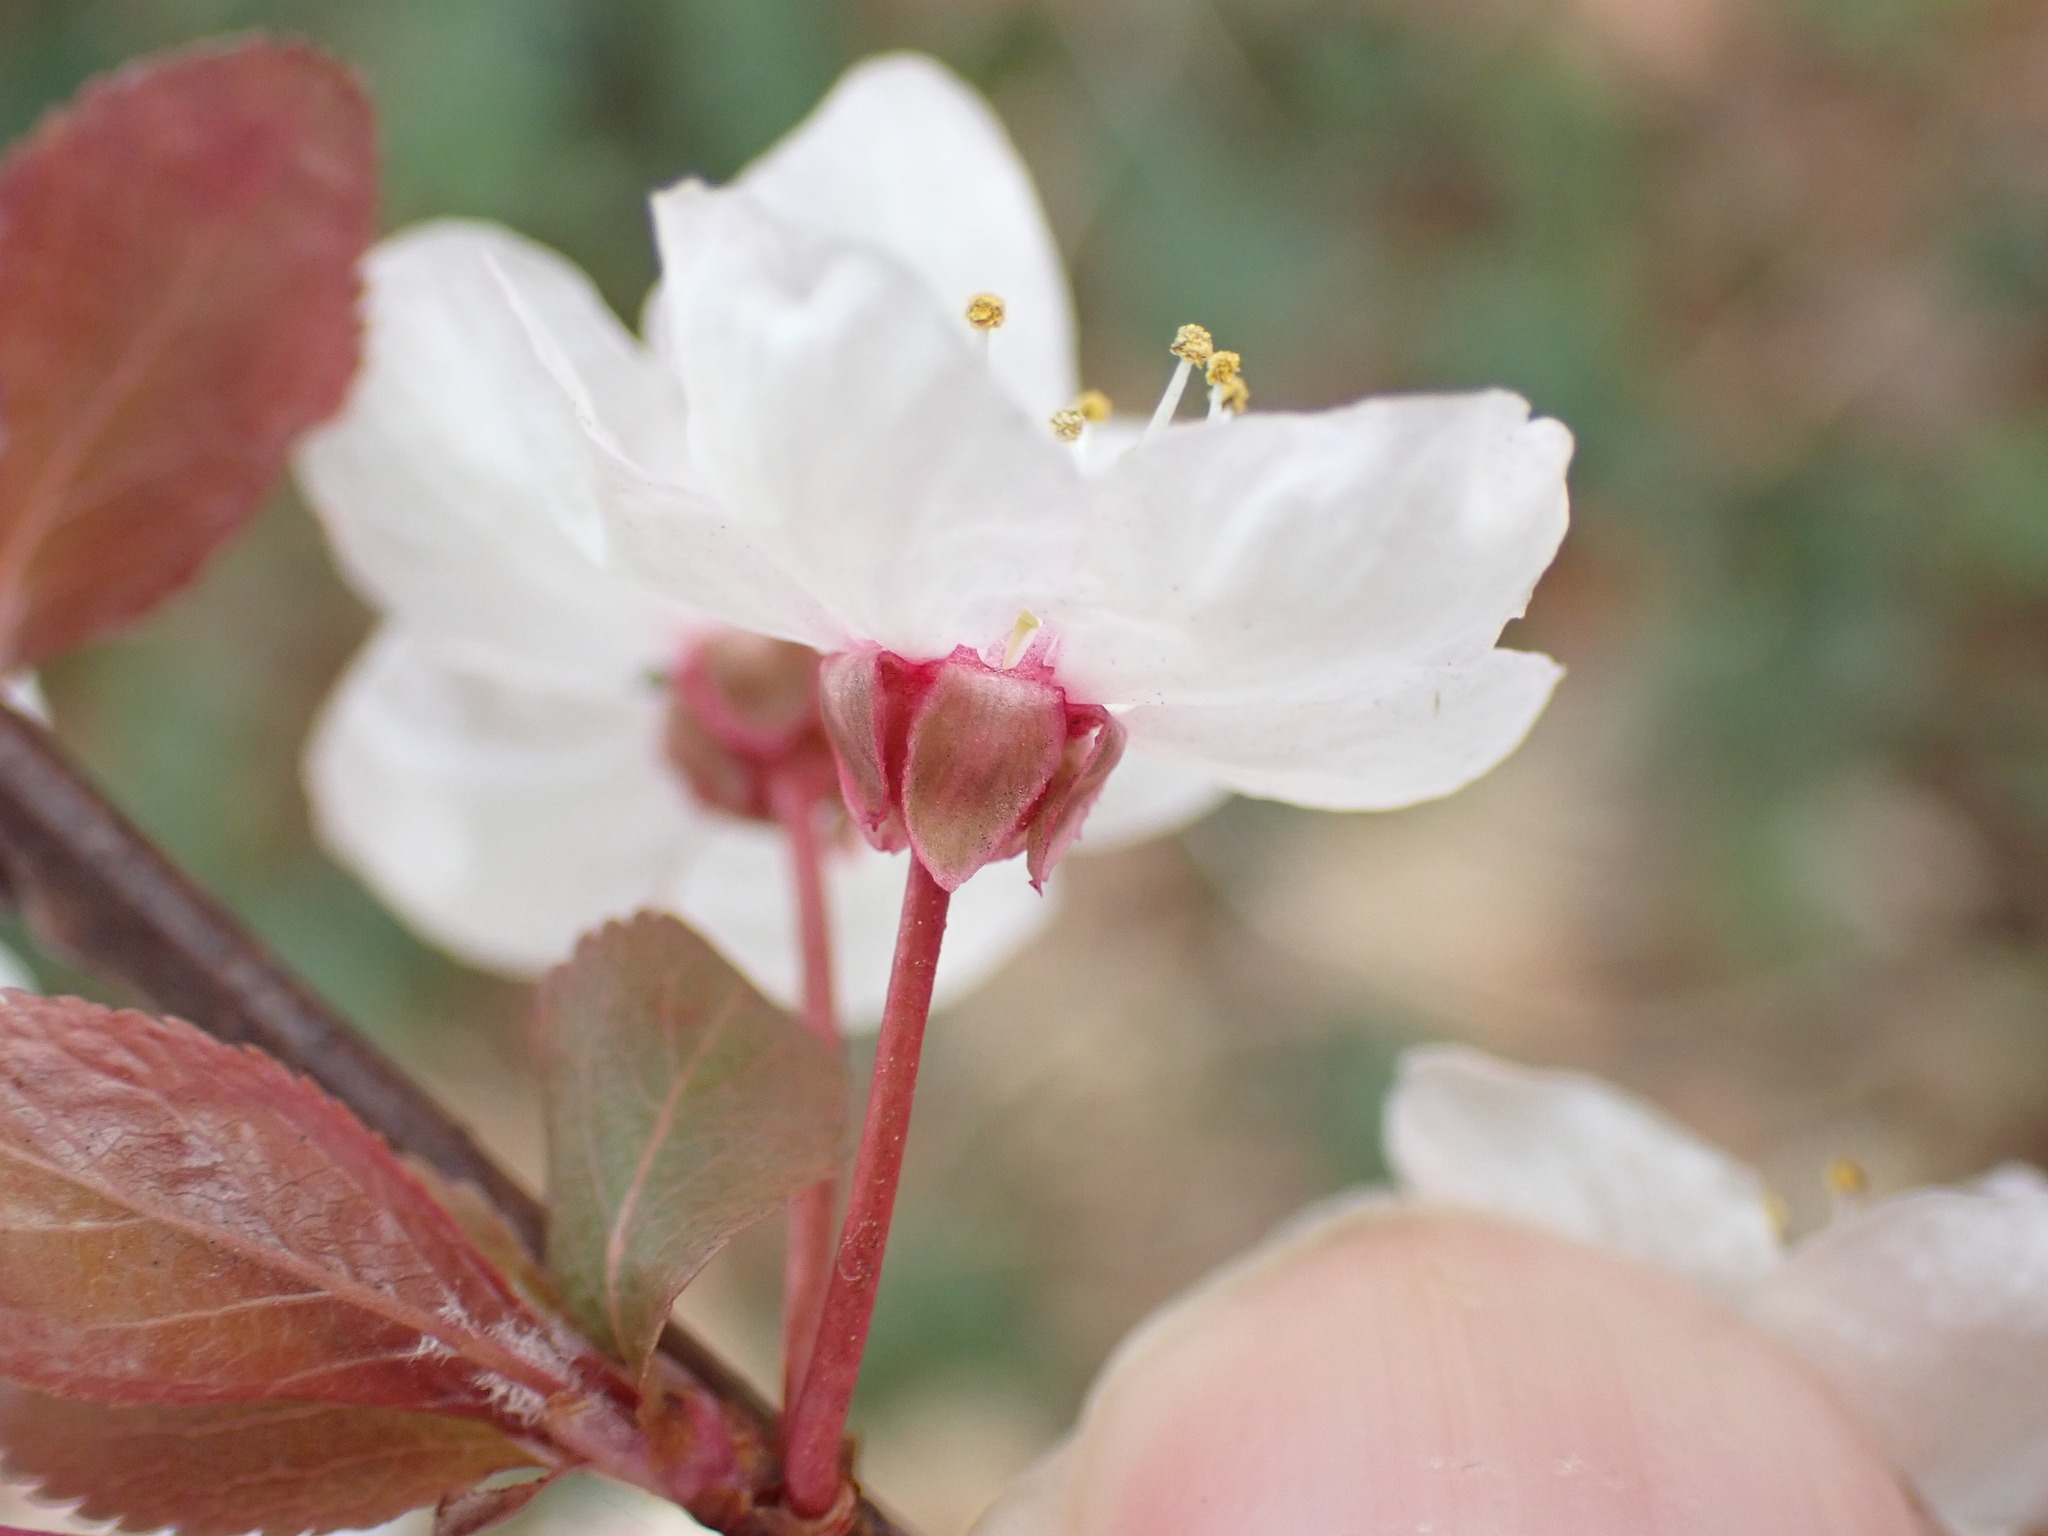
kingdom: Plantae
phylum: Tracheophyta
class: Magnoliopsida
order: Rosales
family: Rosaceae
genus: Prunus
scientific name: Prunus cerasifera
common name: Cherry plum
